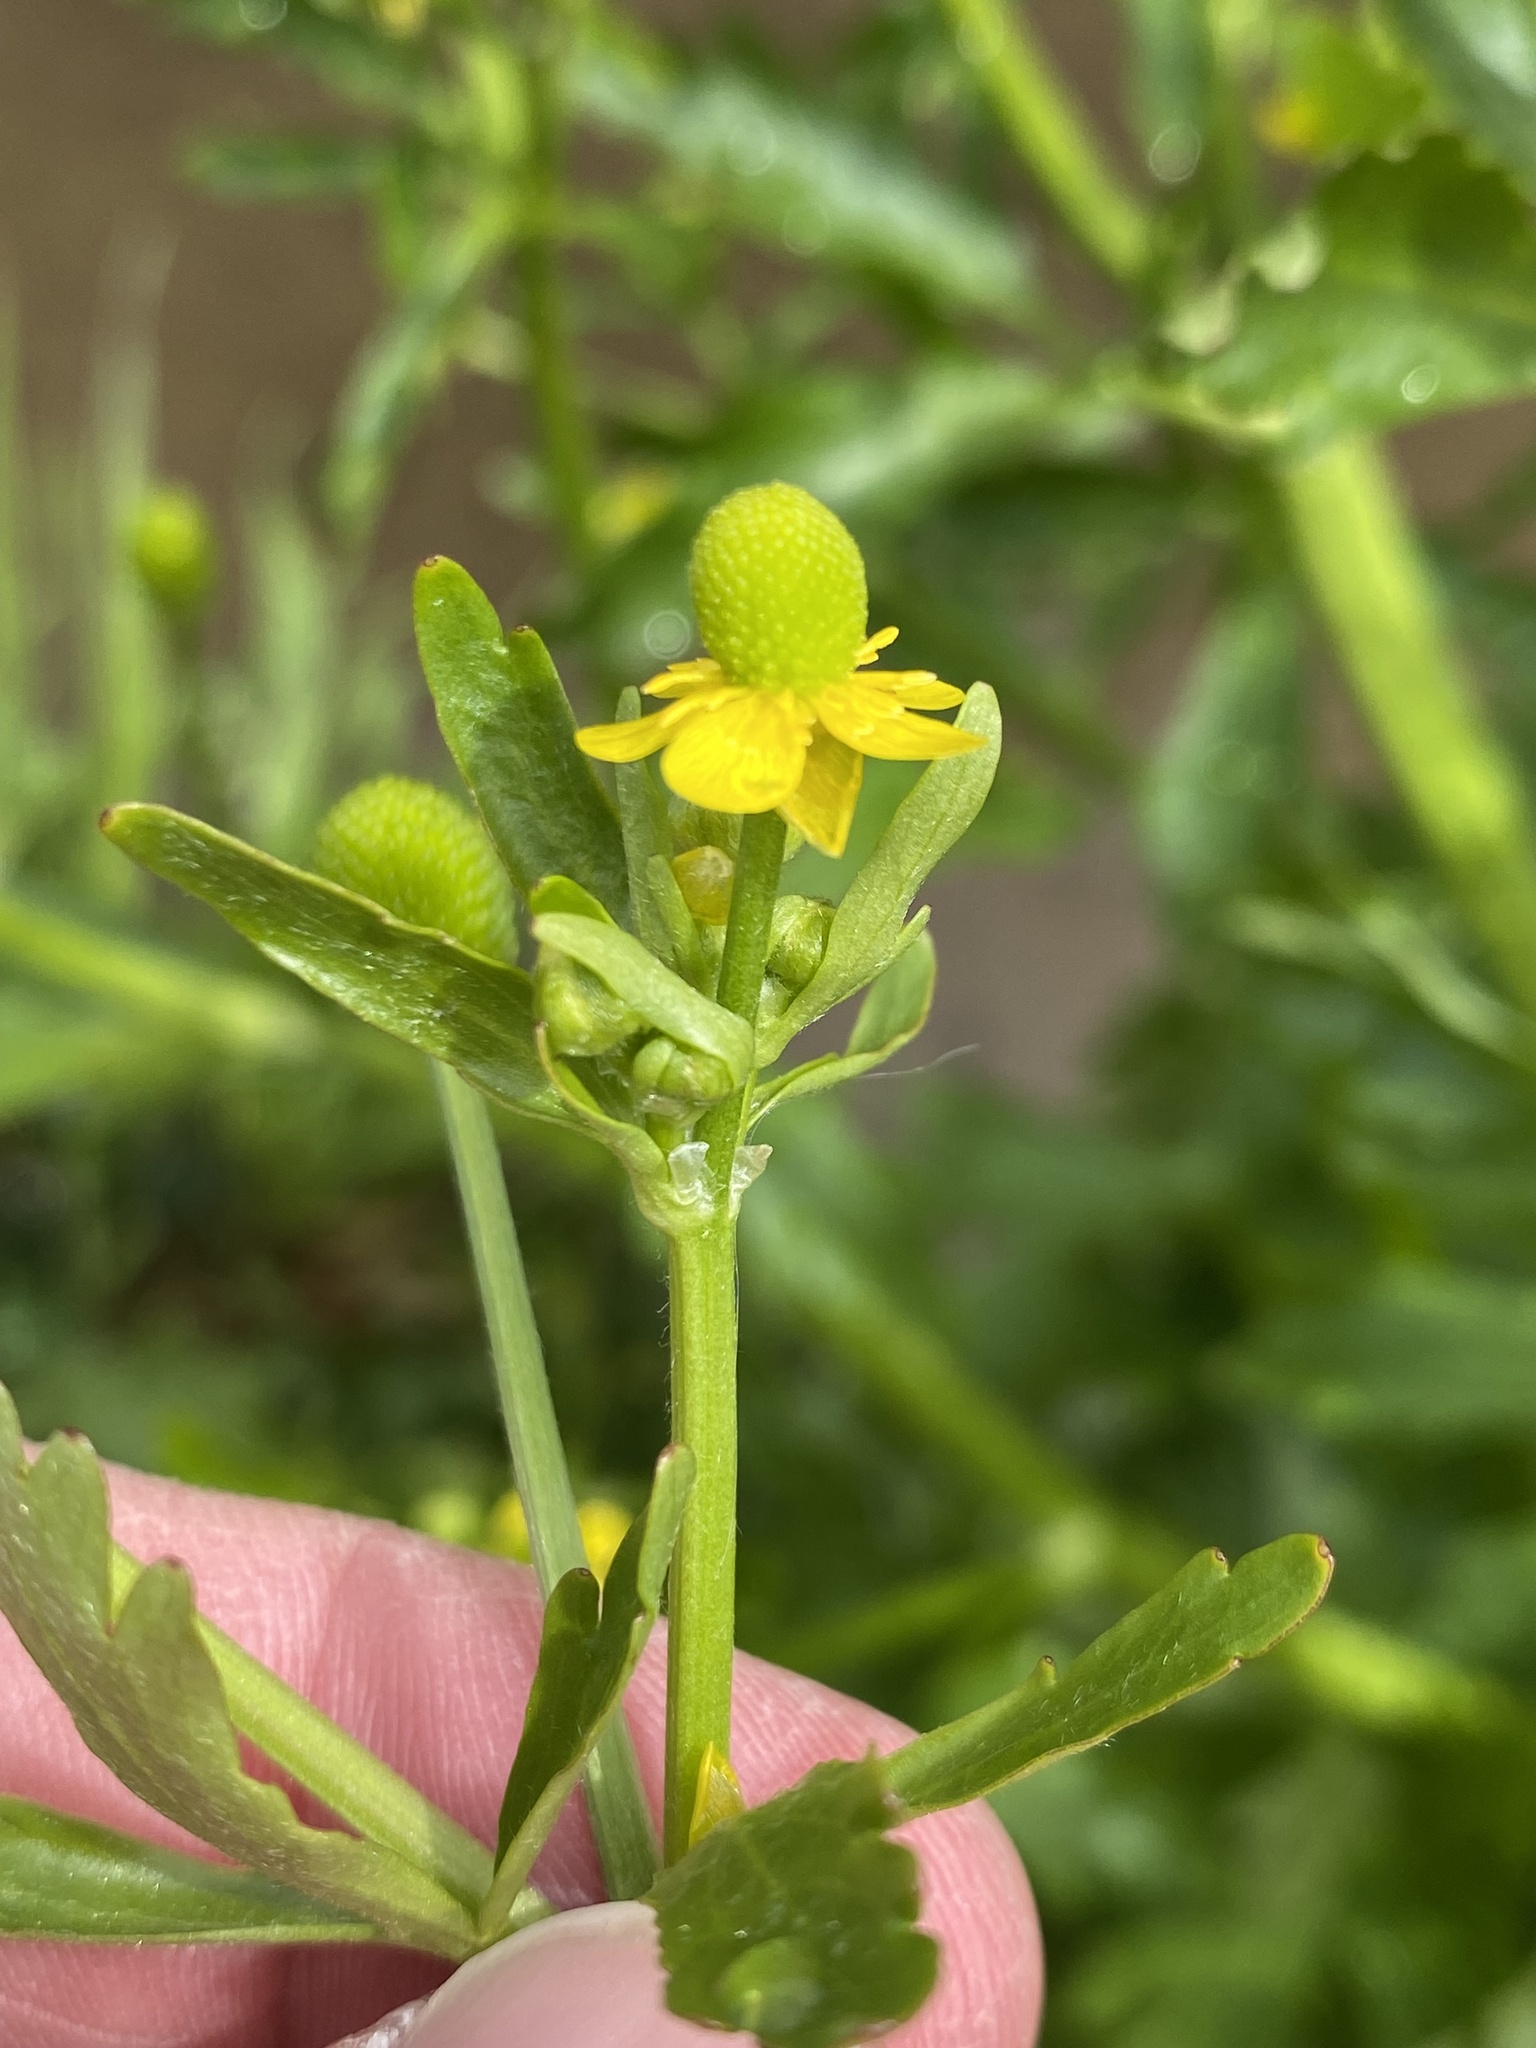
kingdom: Plantae
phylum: Tracheophyta
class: Magnoliopsida
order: Ranunculales
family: Ranunculaceae
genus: Ranunculus
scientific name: Ranunculus sceleratus
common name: Celery-leaved buttercup
